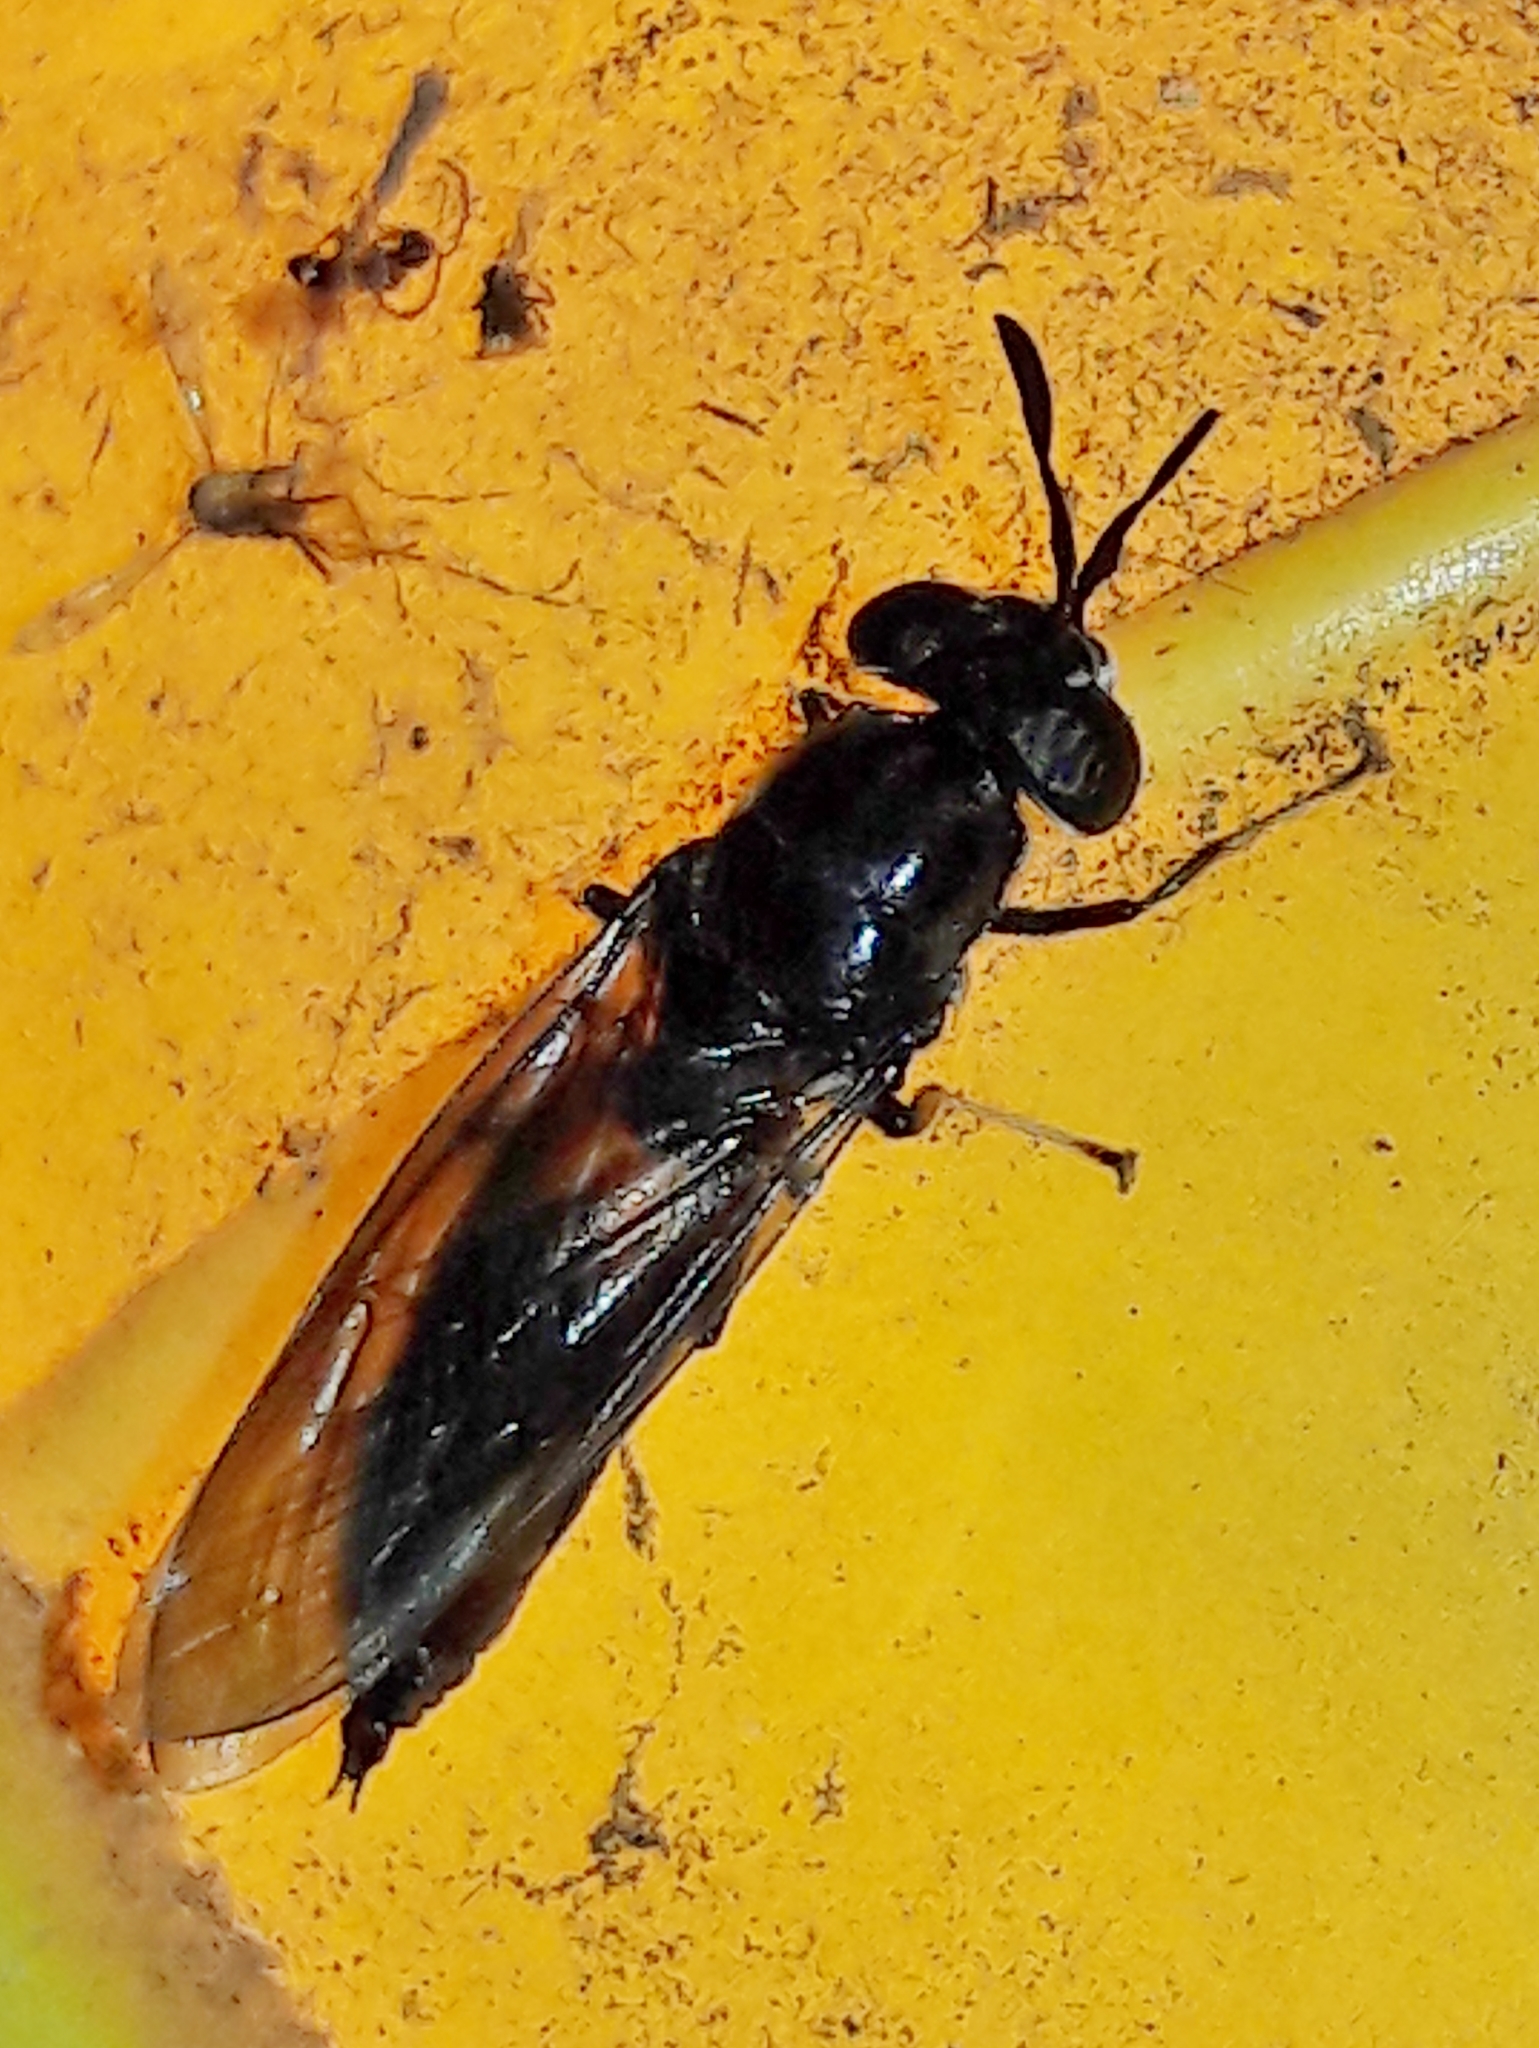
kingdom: Animalia
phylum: Arthropoda
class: Insecta
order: Diptera
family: Stratiomyidae
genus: Hermetia
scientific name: Hermetia illucens
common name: Black soldier fly
